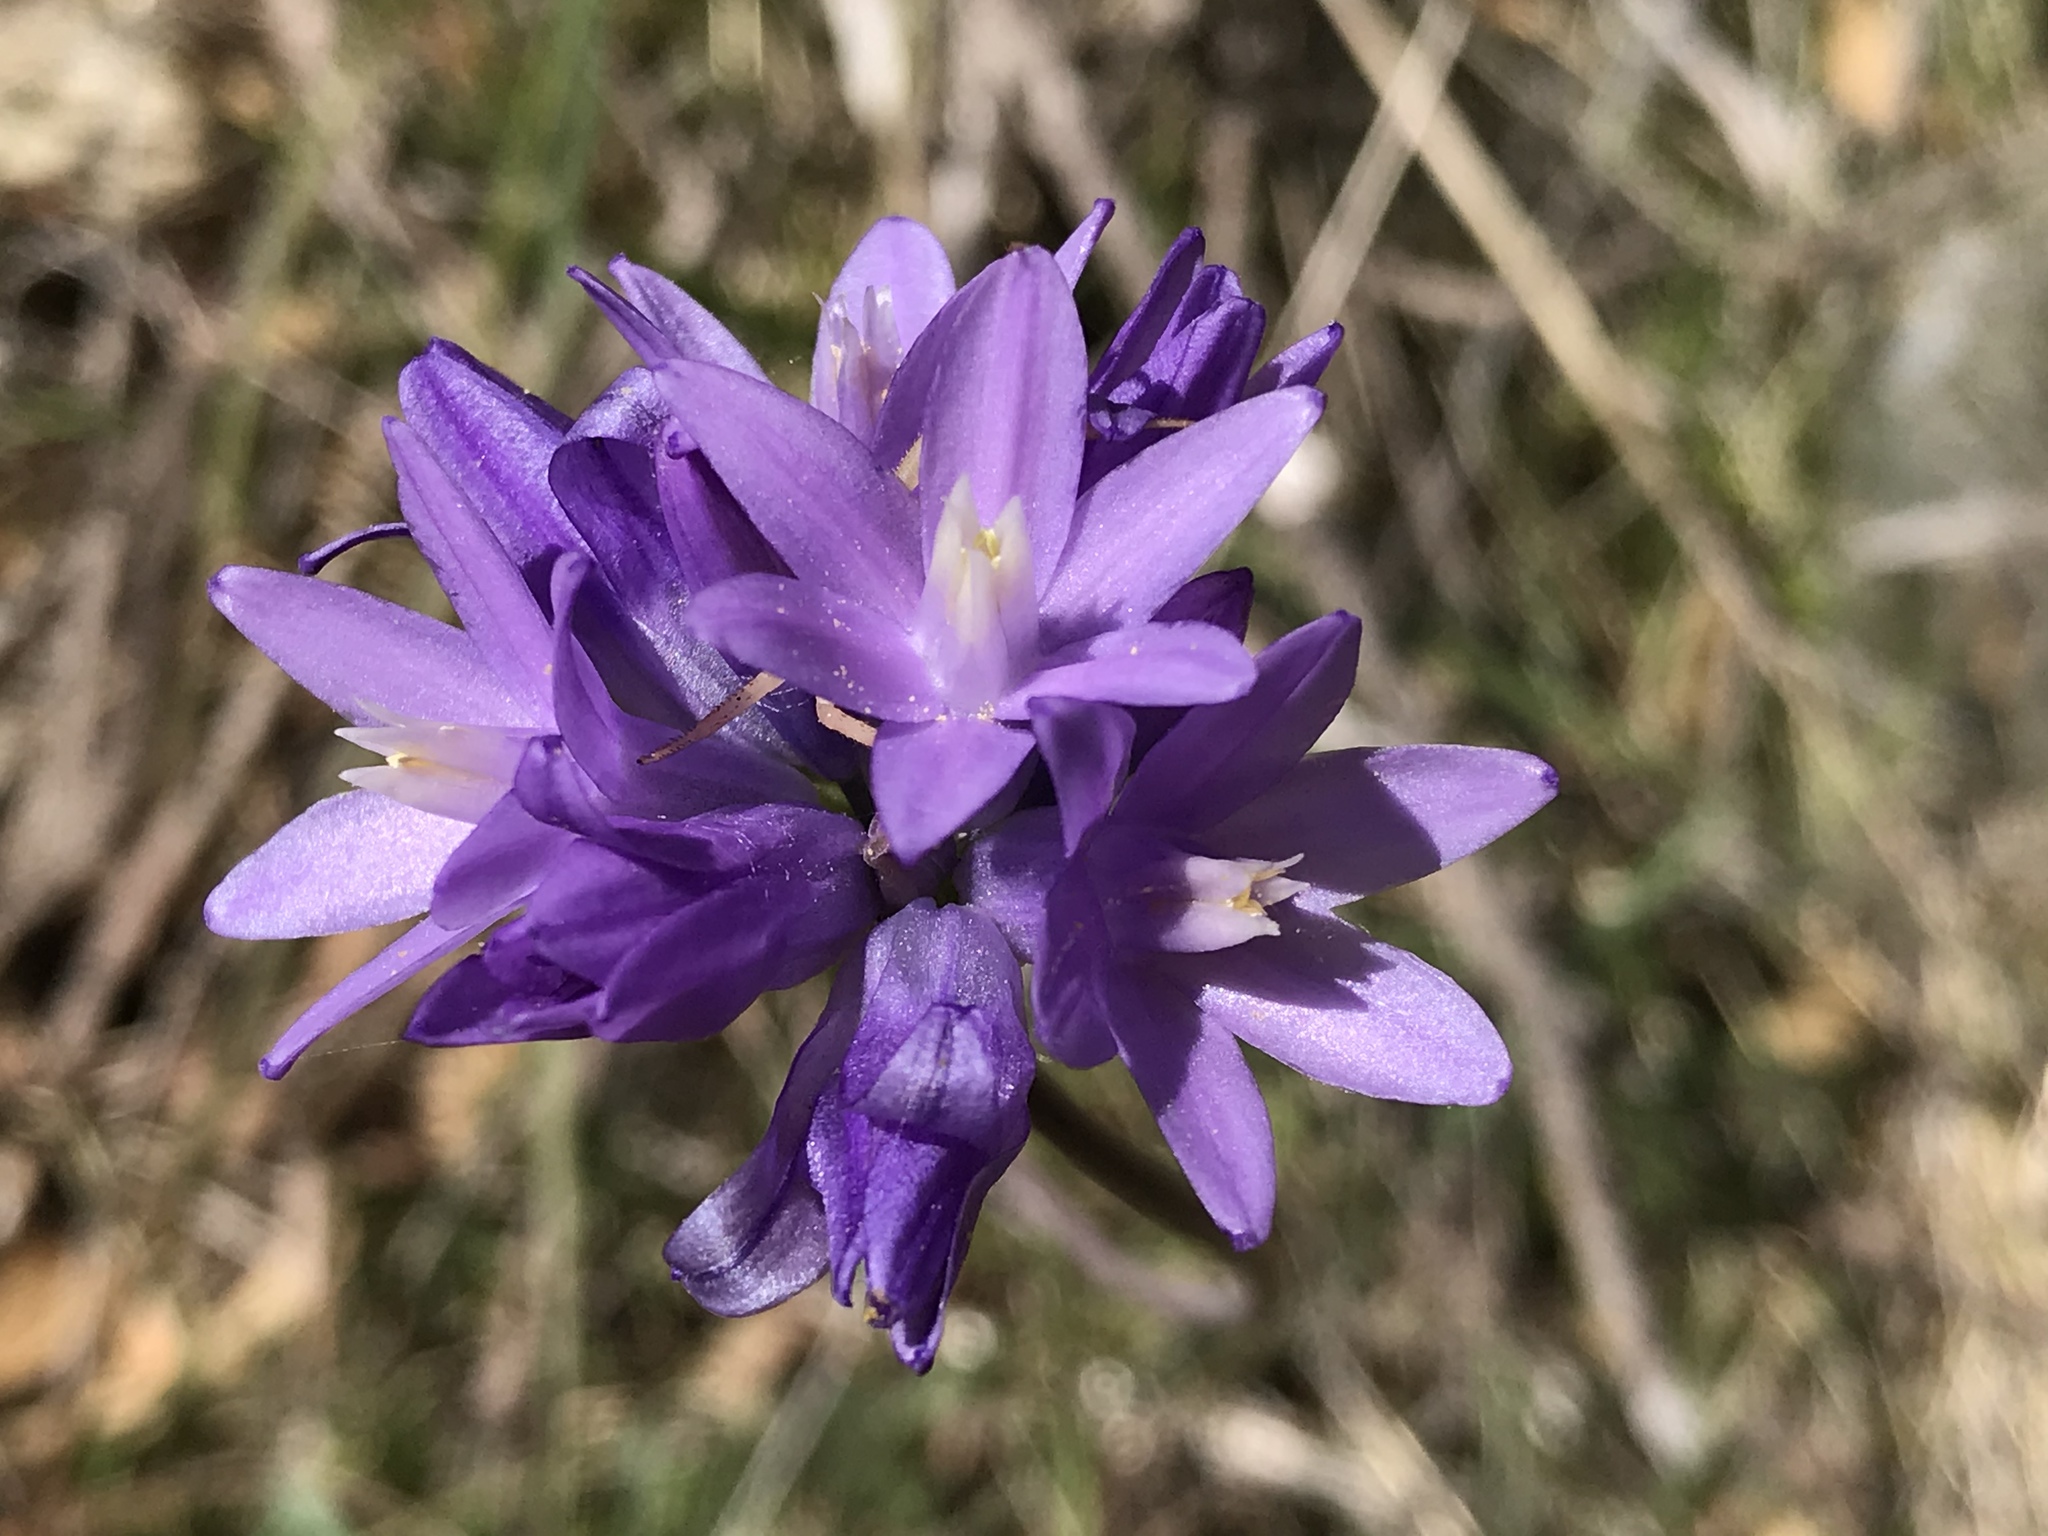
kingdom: Plantae
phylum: Tracheophyta
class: Liliopsida
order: Asparagales
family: Asparagaceae
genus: Dipterostemon
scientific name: Dipterostemon capitatus
